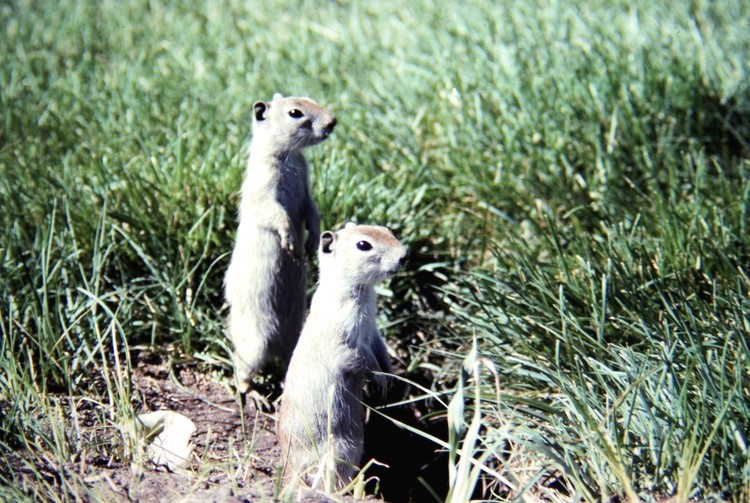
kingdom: Animalia
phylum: Chordata
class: Mammalia
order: Rodentia
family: Sciuridae
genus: Urocitellus
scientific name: Urocitellus beldingi
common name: Belding's ground squirrel
